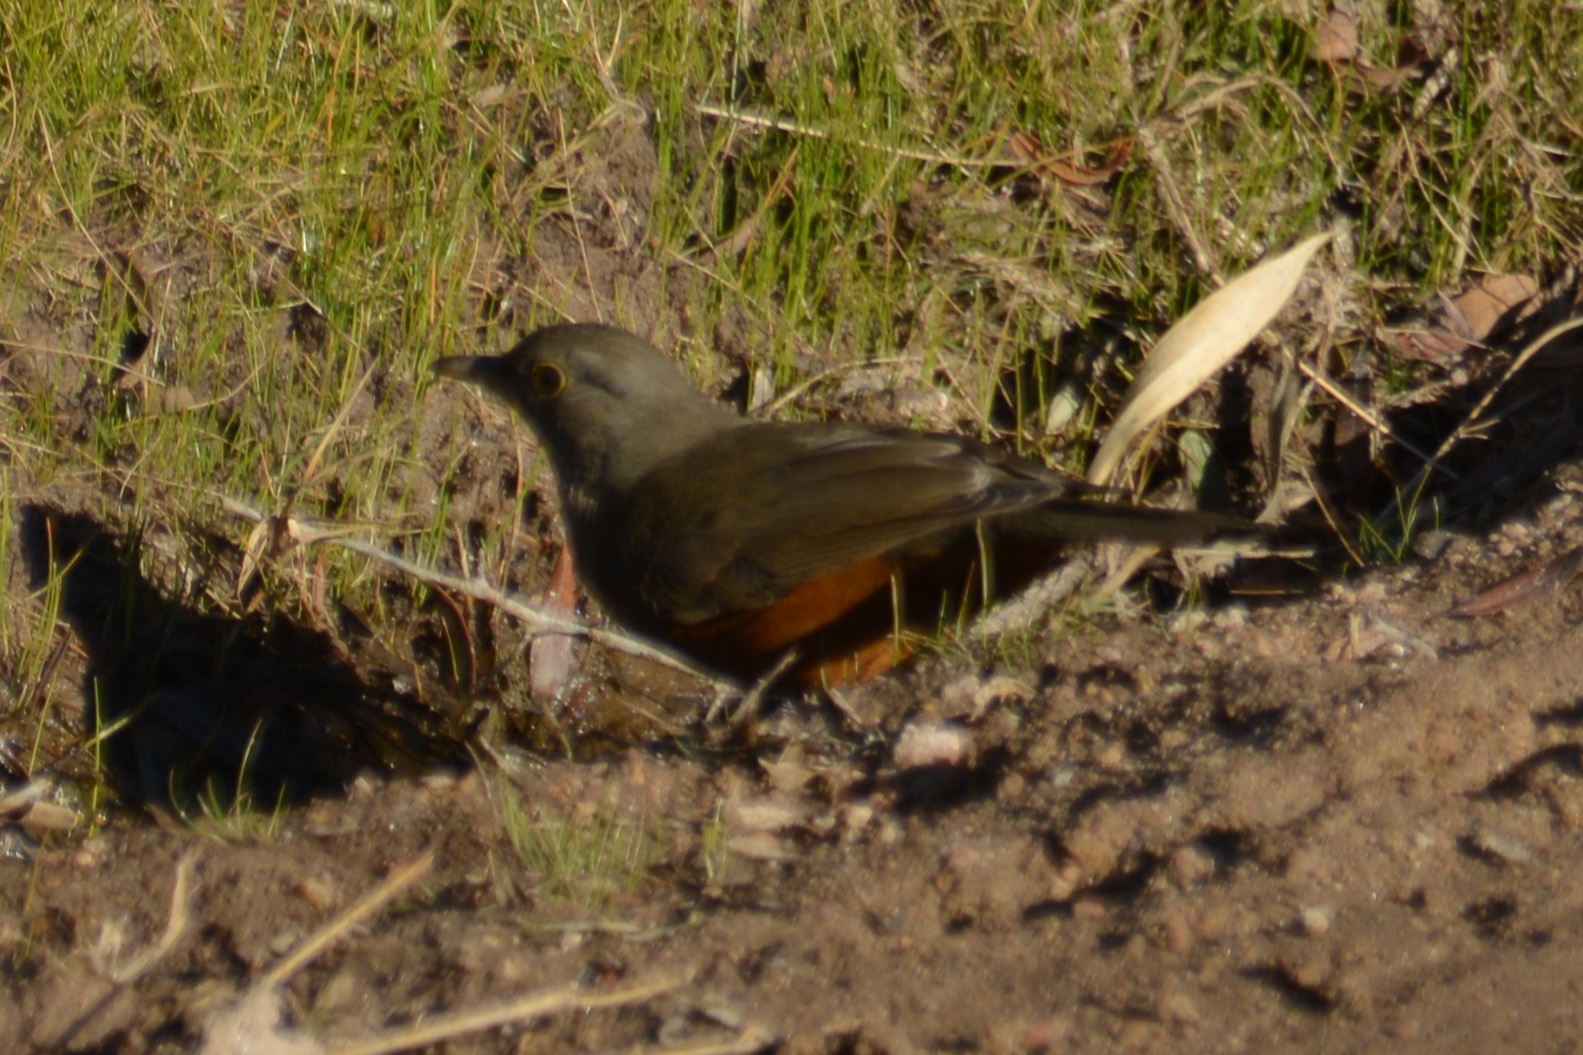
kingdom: Animalia
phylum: Chordata
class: Aves
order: Passeriformes
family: Turdidae
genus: Turdus
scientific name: Turdus rufiventris
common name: Rufous-bellied thrush
